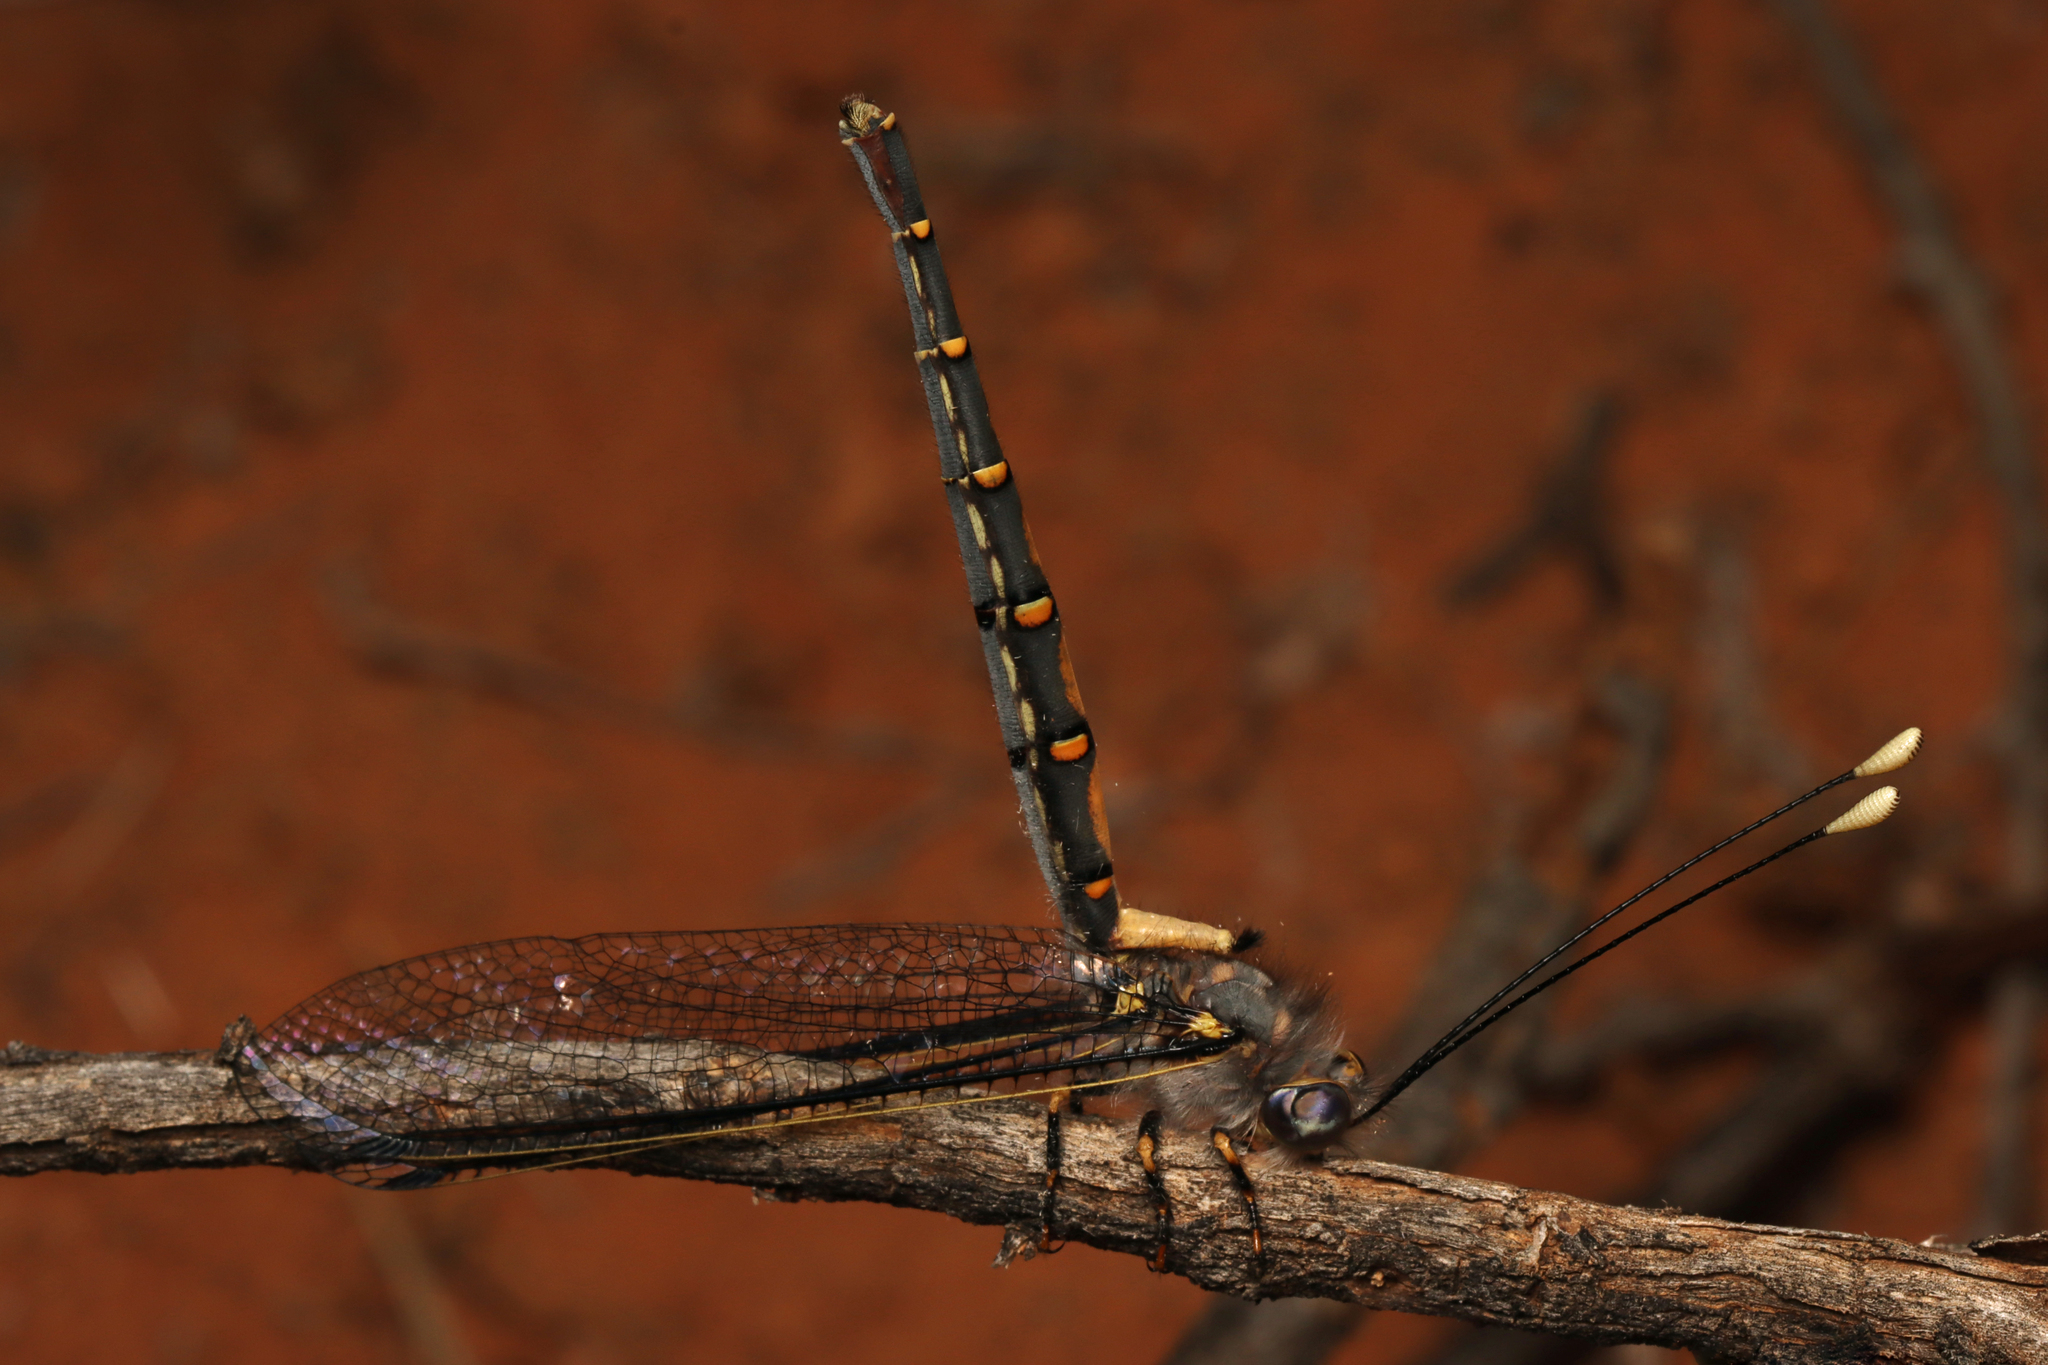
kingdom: Animalia
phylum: Arthropoda
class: Insecta
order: Neuroptera
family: Ascalaphidae
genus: Megacmonotus
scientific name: Megacmonotus magnus
